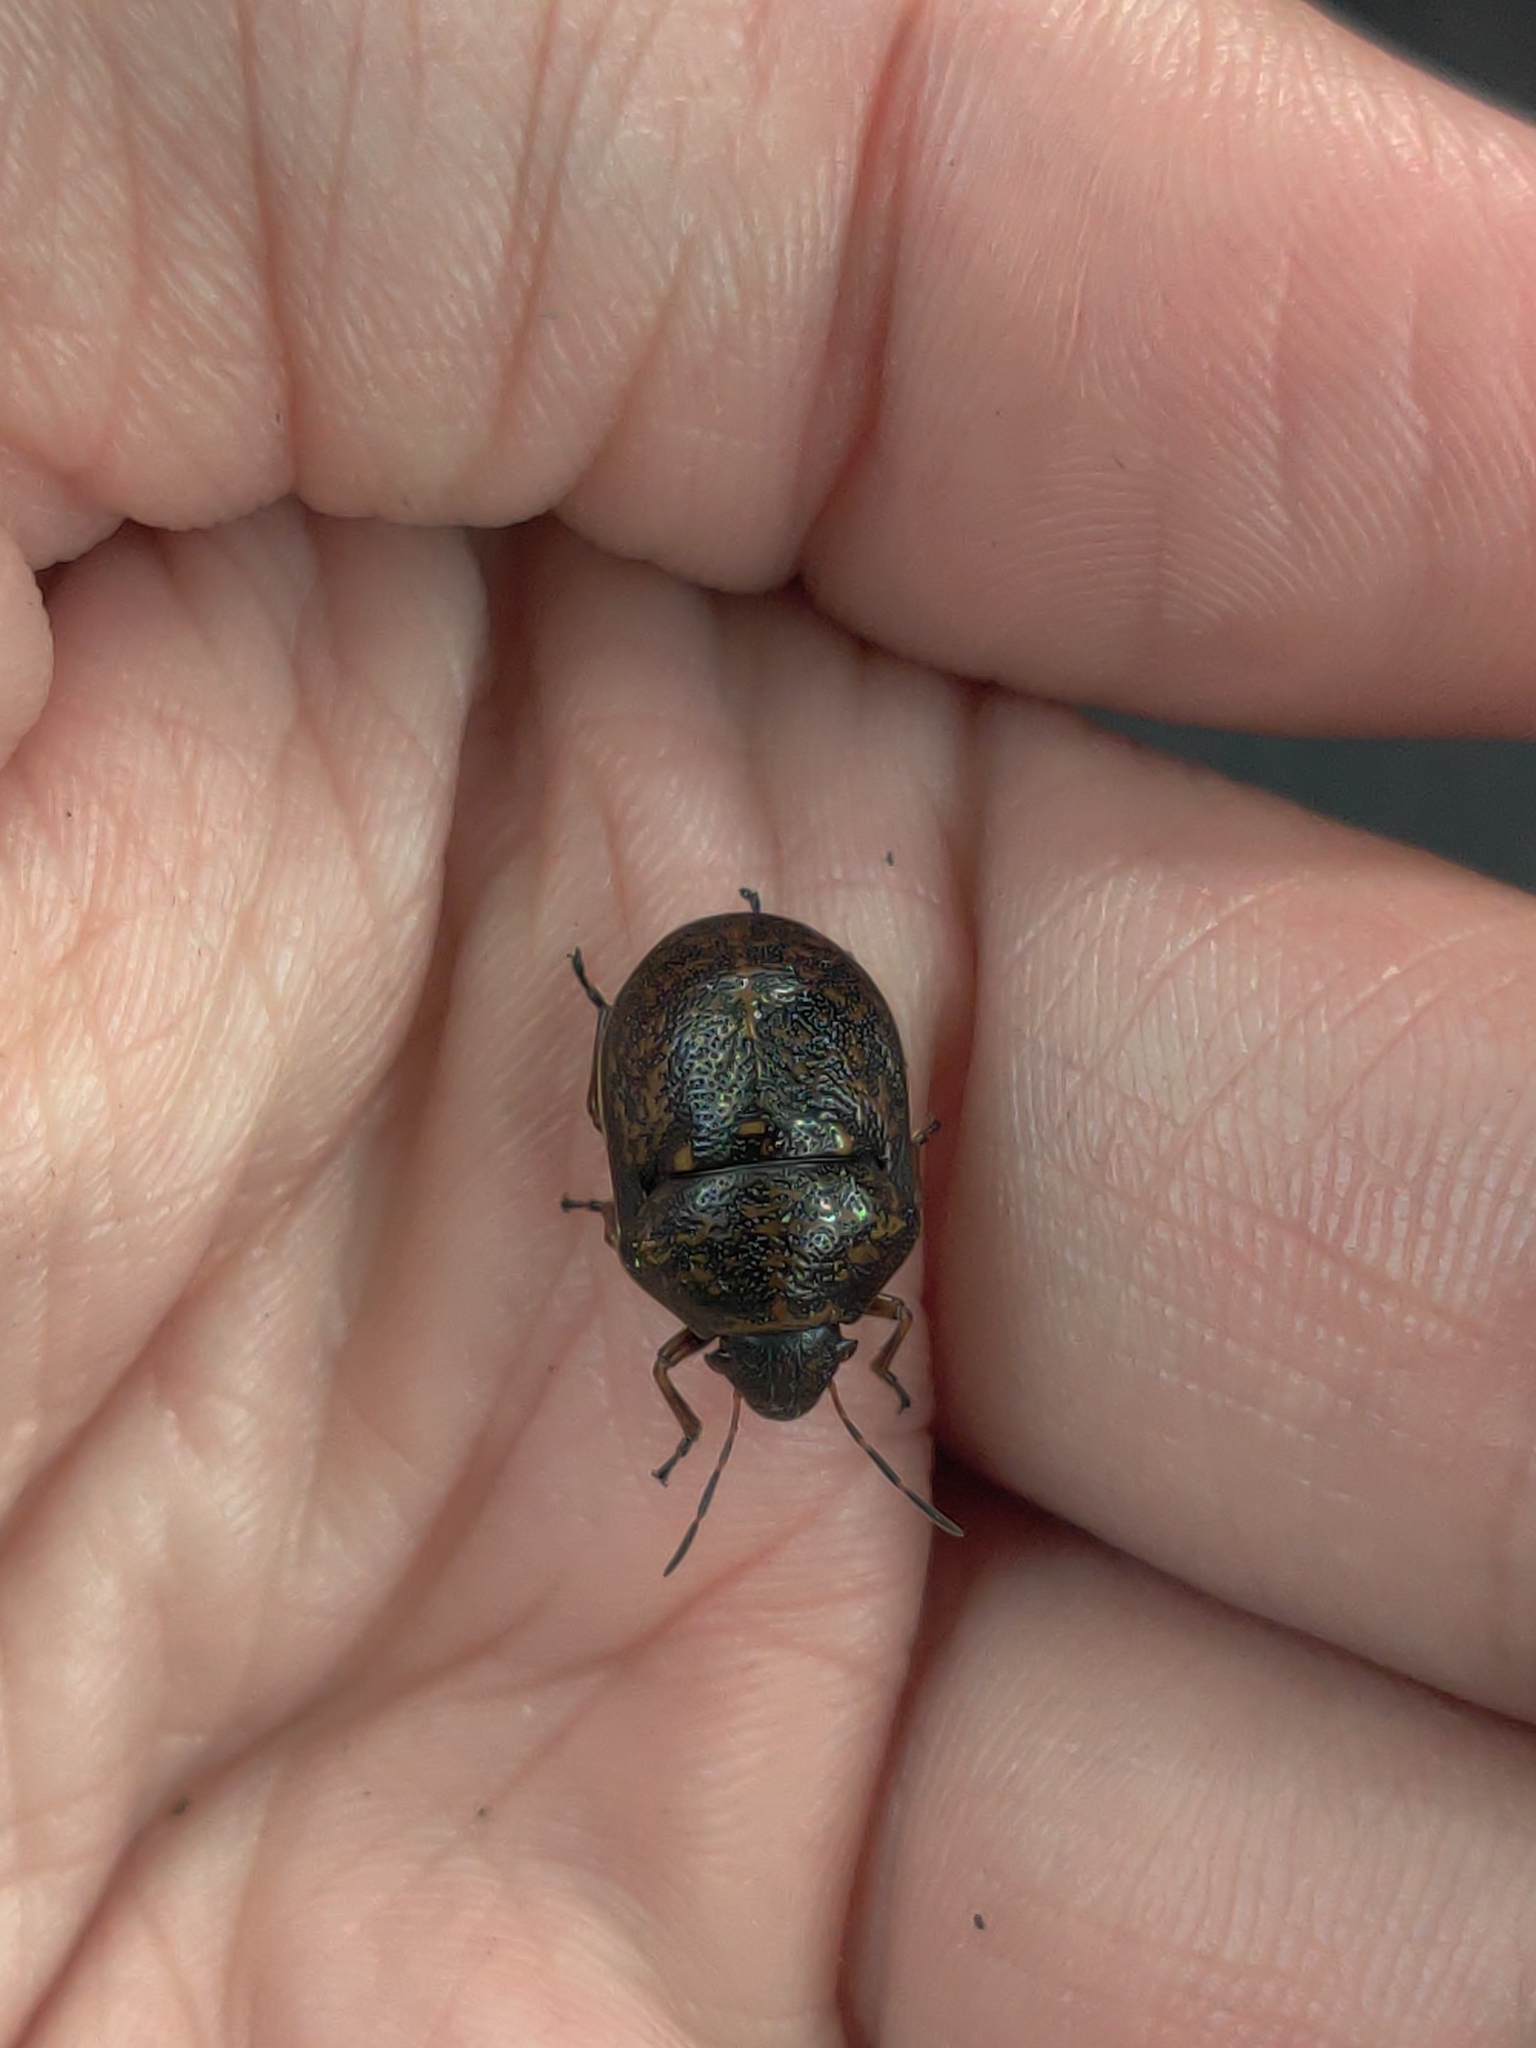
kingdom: Animalia
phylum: Arthropoda
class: Insecta
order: Hemiptera
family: Scutelleridae
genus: Orsilochides
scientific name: Orsilochides guttata
